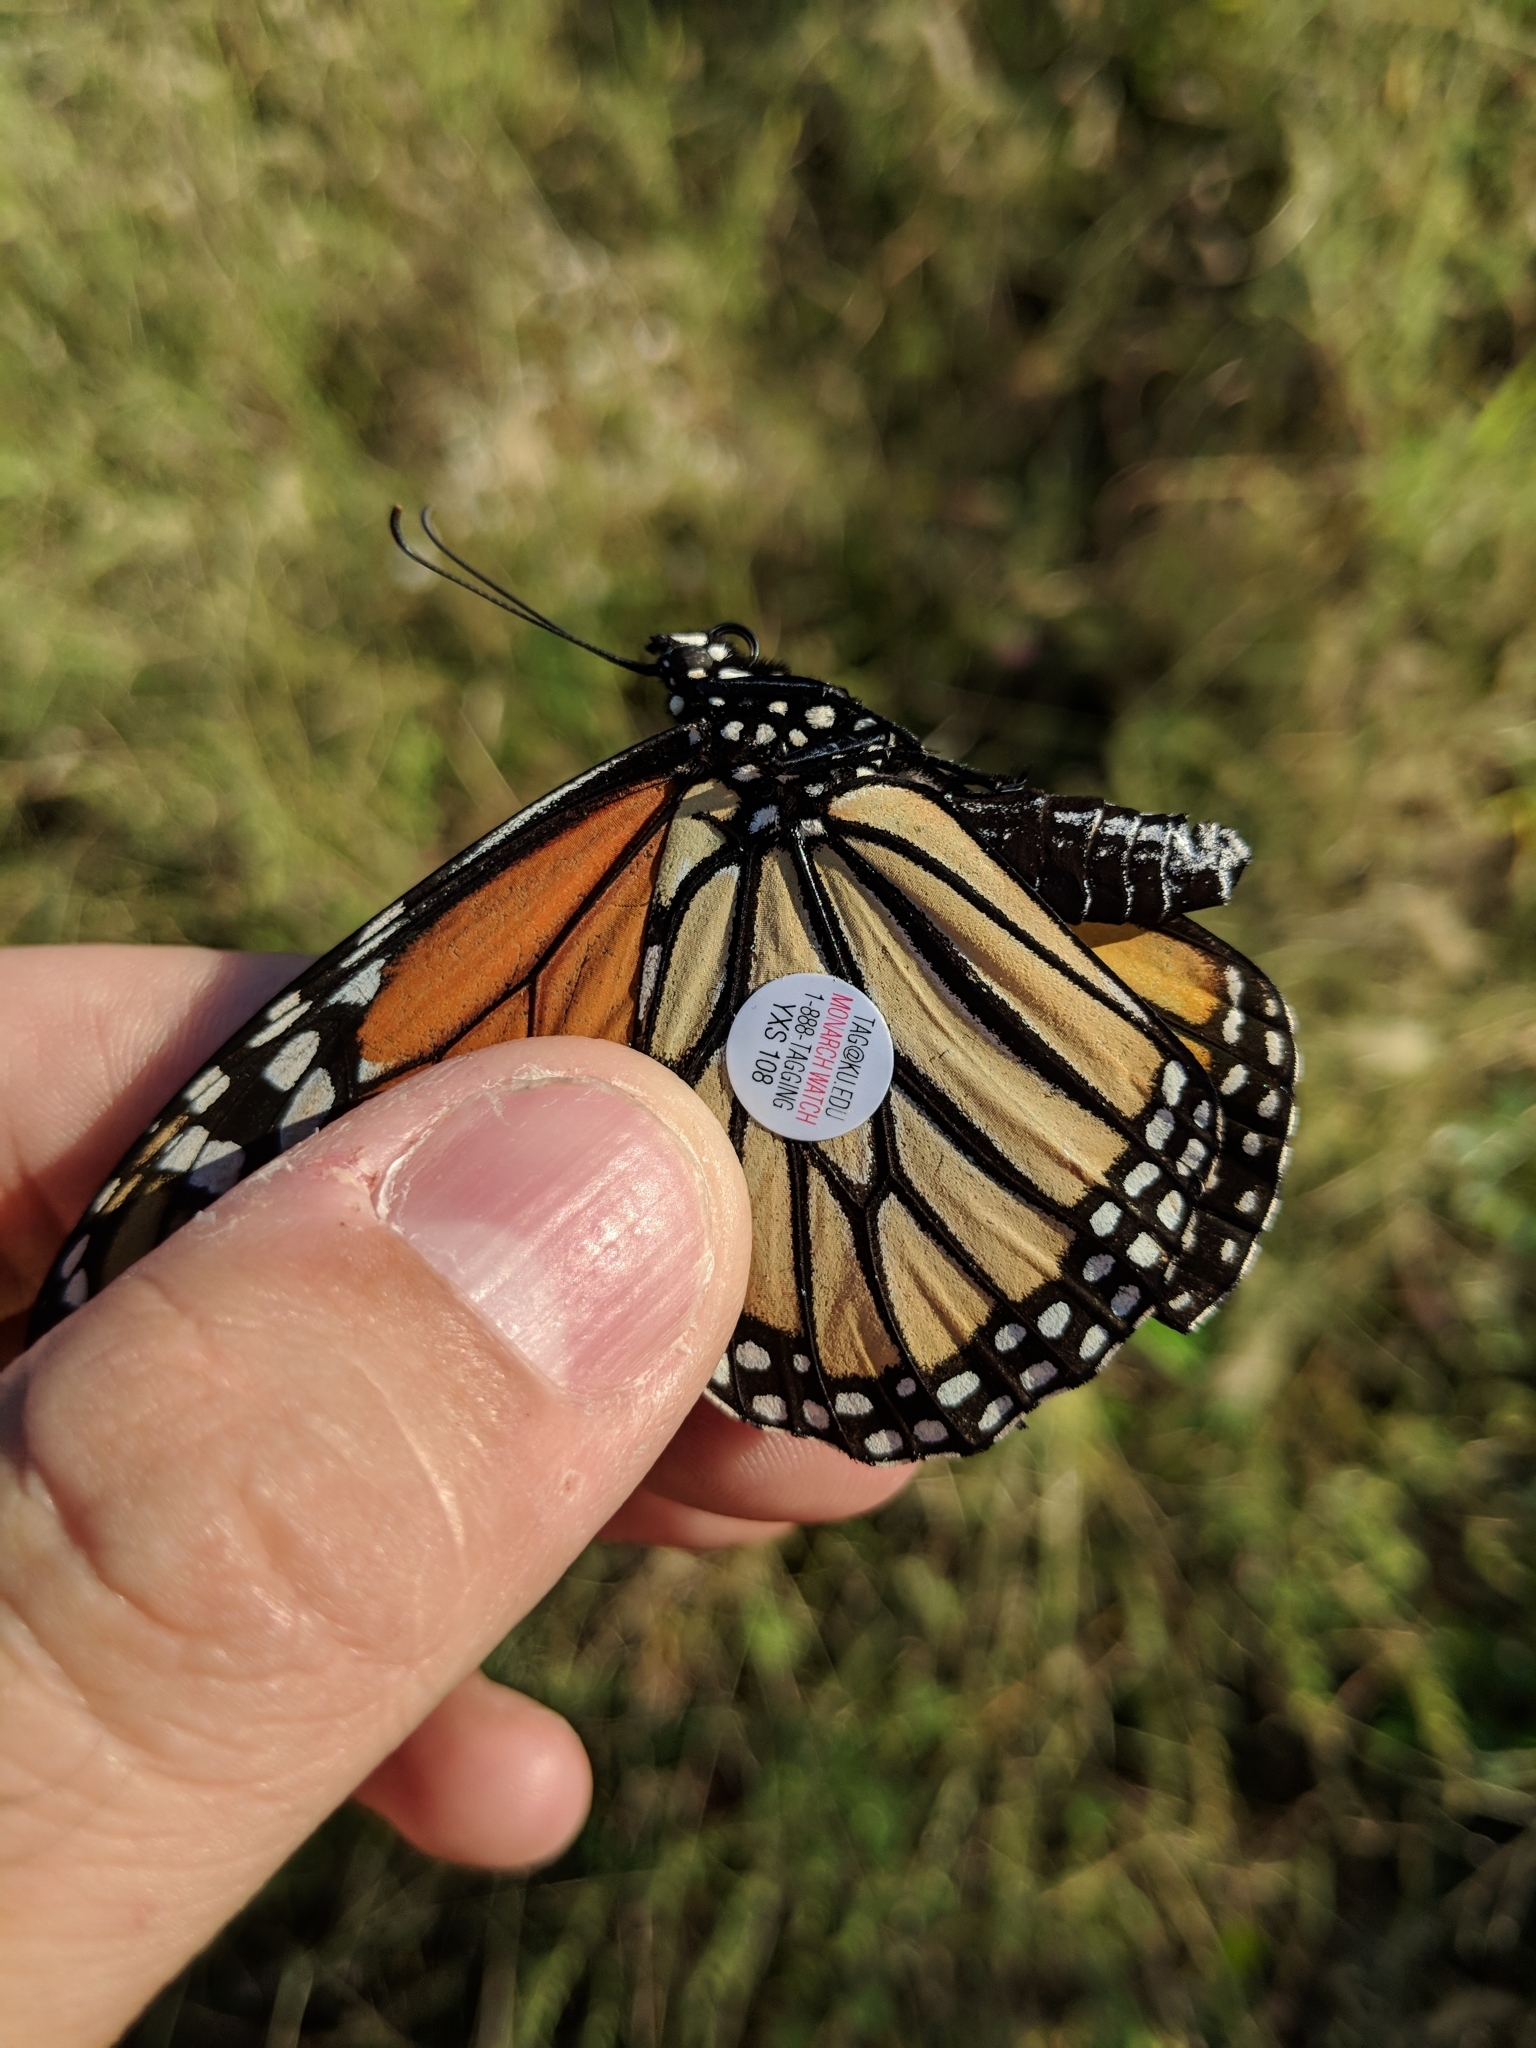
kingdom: Animalia
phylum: Arthropoda
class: Insecta
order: Lepidoptera
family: Nymphalidae
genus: Danaus
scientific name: Danaus plexippus
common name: Monarch
